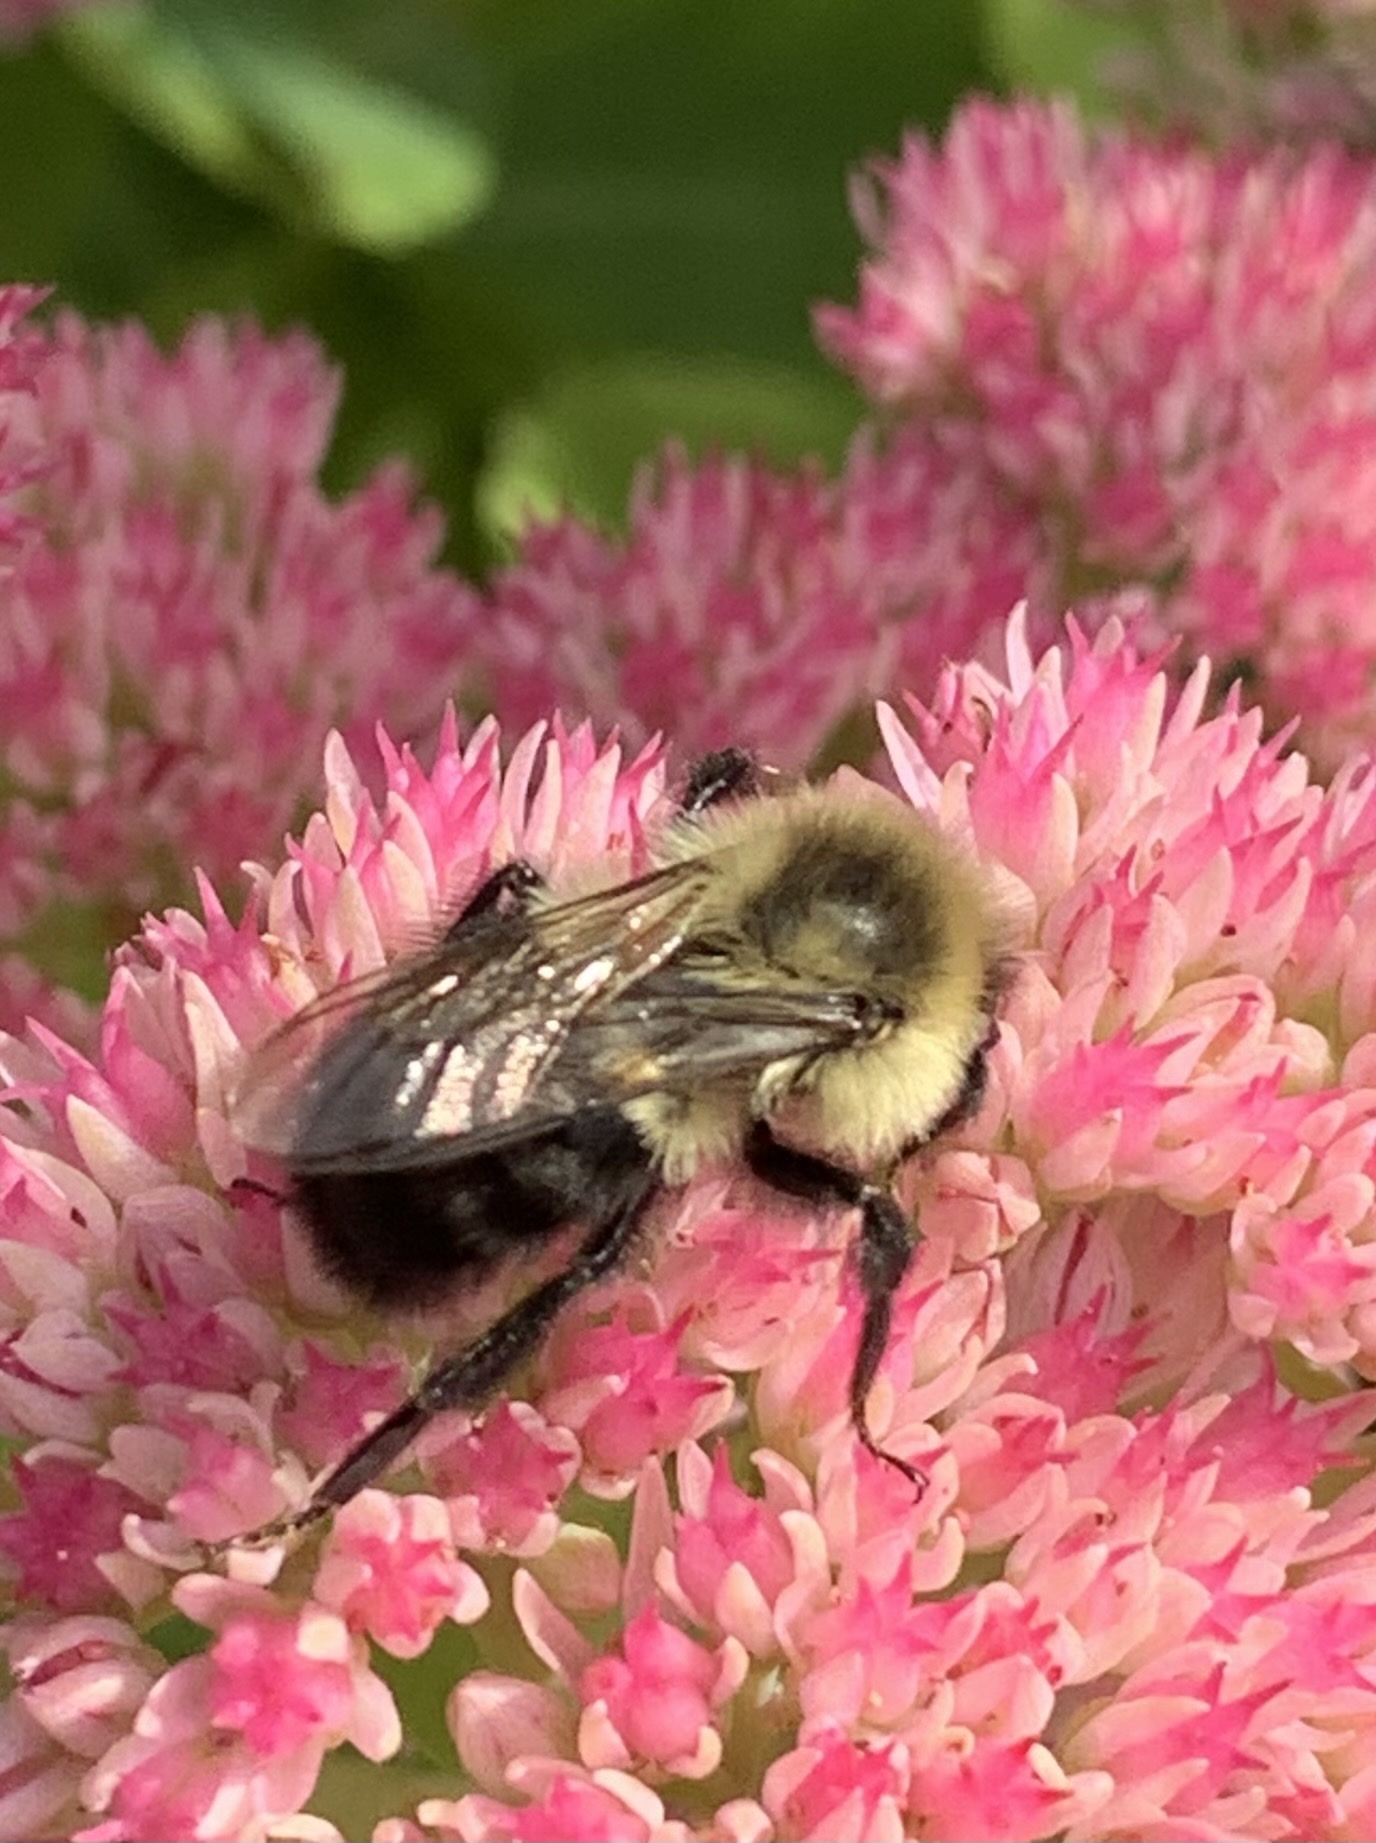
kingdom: Animalia
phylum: Arthropoda
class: Insecta
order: Hymenoptera
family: Apidae
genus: Bombus
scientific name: Bombus impatiens
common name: Common eastern bumble bee
